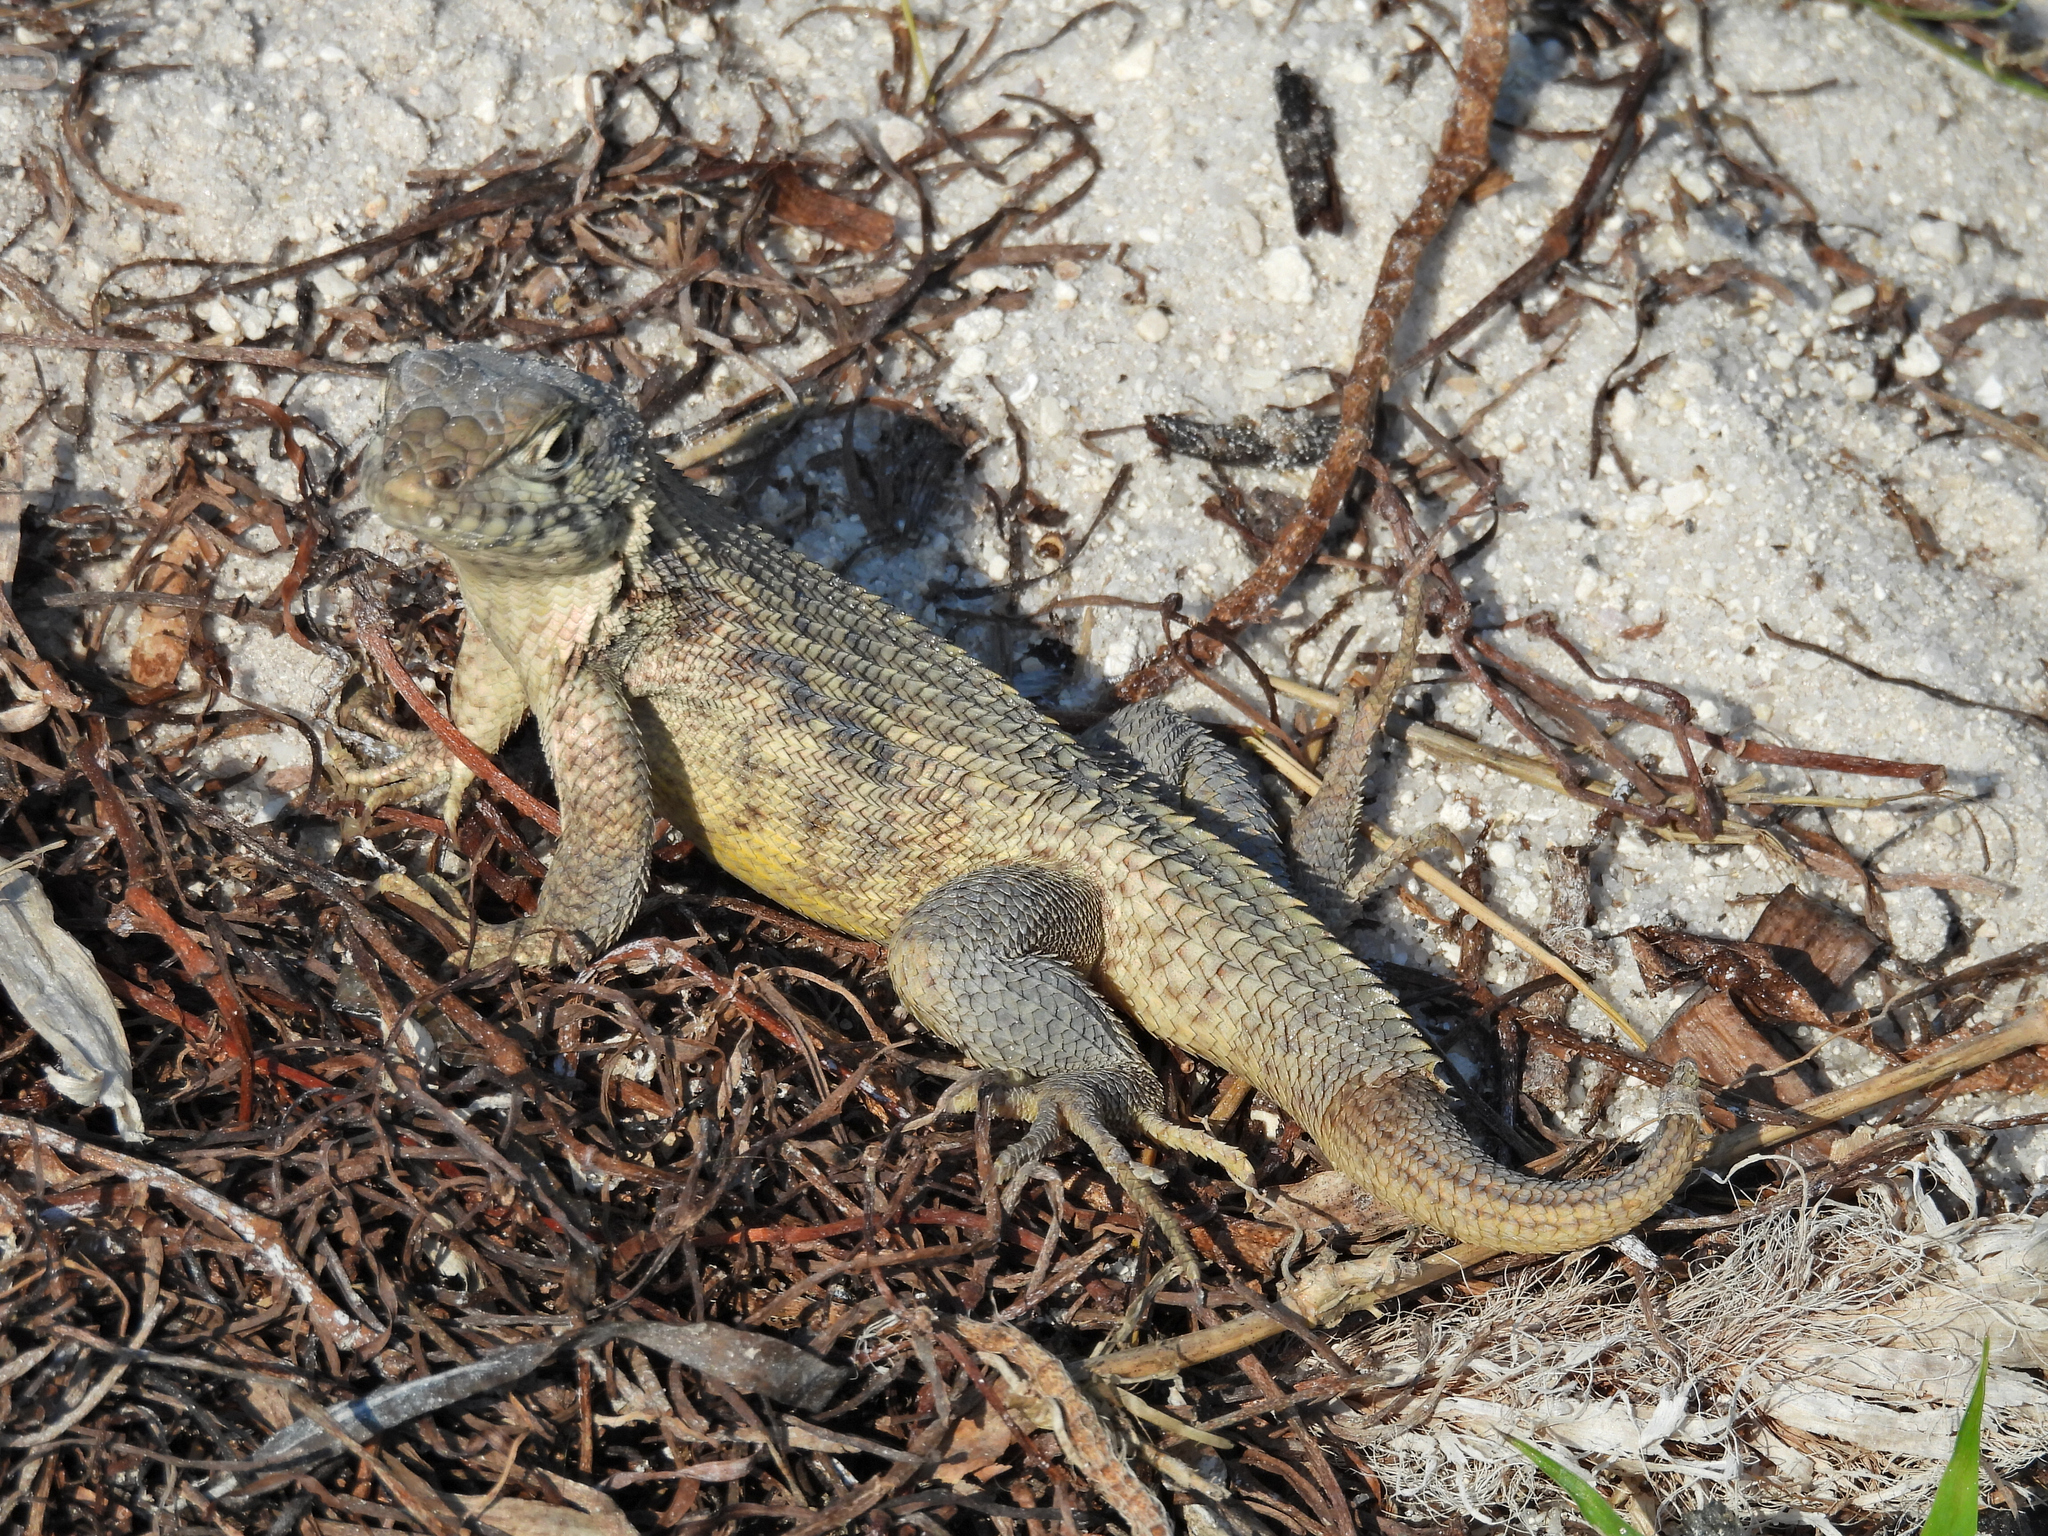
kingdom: Animalia
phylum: Chordata
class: Squamata
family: Leiocephalidae
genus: Leiocephalus
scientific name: Leiocephalus carinatus
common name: Northern curly-tailed lizard
